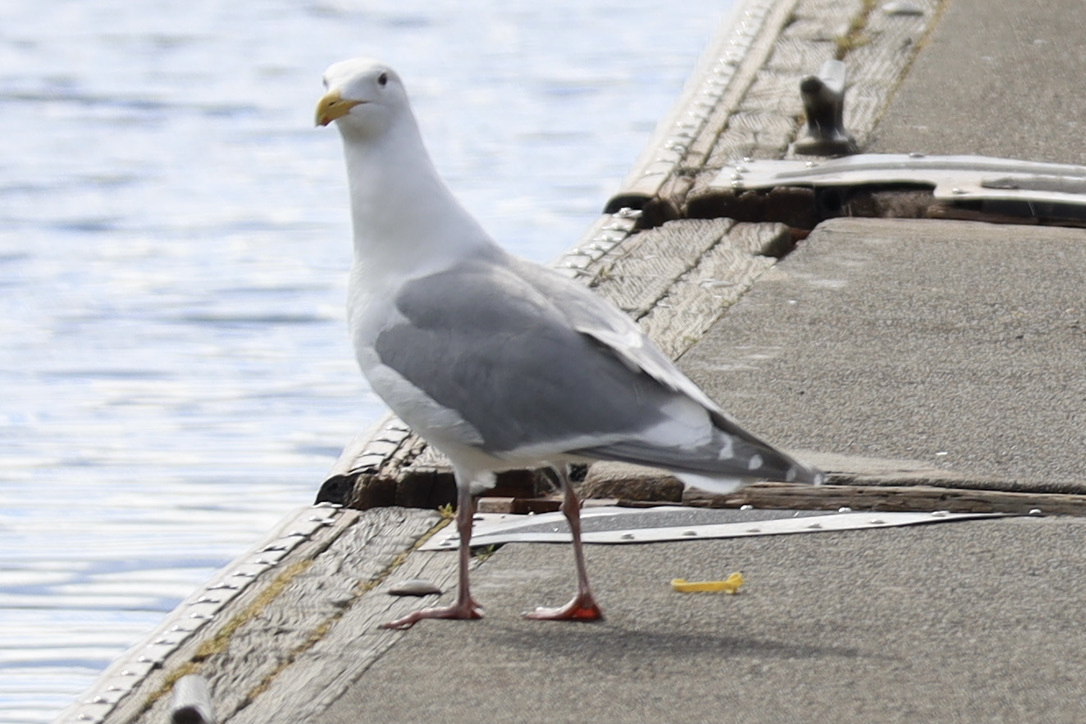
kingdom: Animalia
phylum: Chordata
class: Aves
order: Charadriiformes
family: Laridae
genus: Larus
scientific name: Larus
